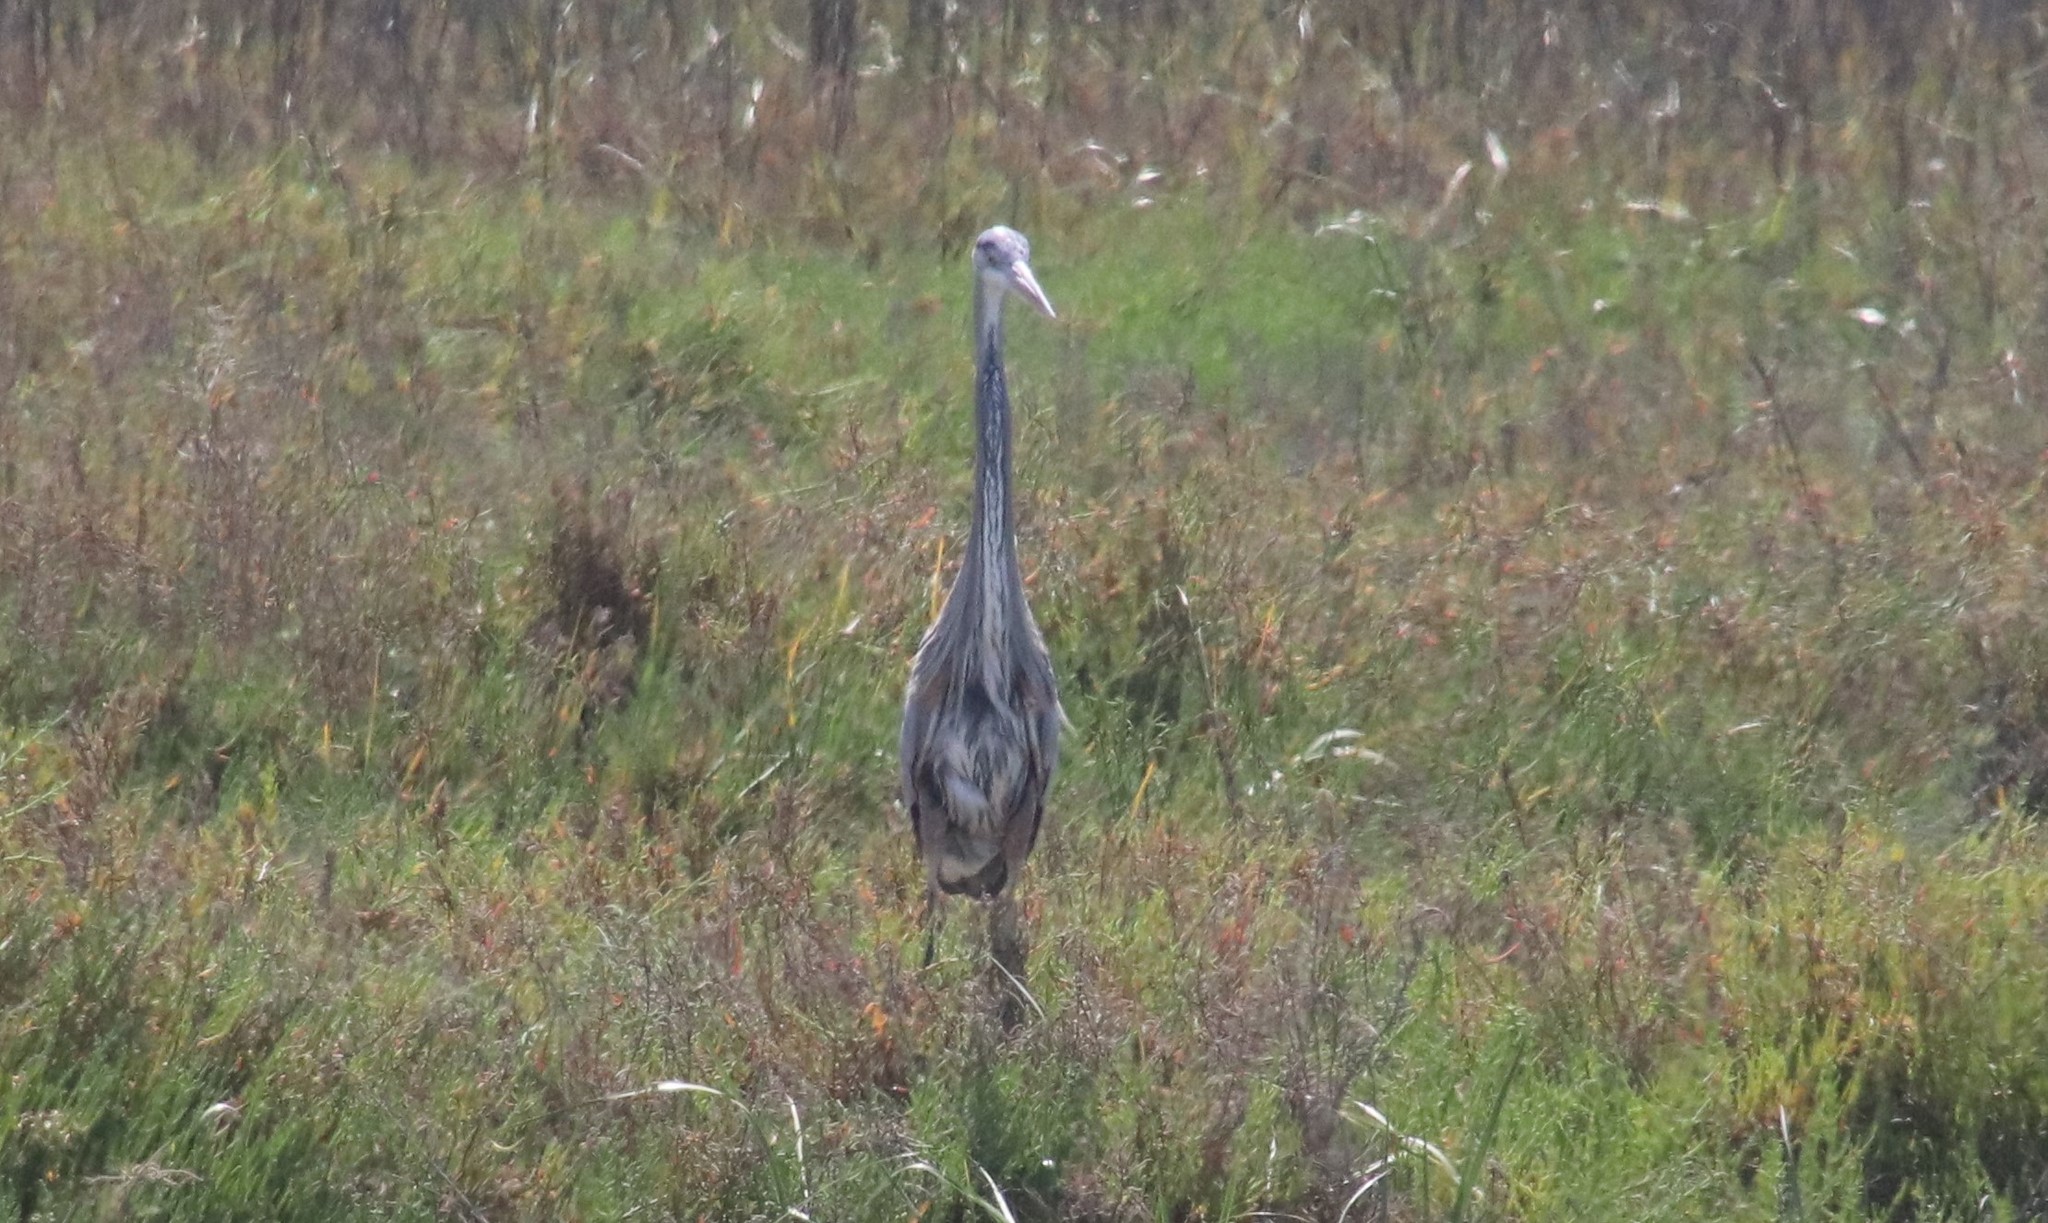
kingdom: Animalia
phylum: Chordata
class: Aves
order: Pelecaniformes
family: Ardeidae
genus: Ardea
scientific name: Ardea herodias
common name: Great blue heron
